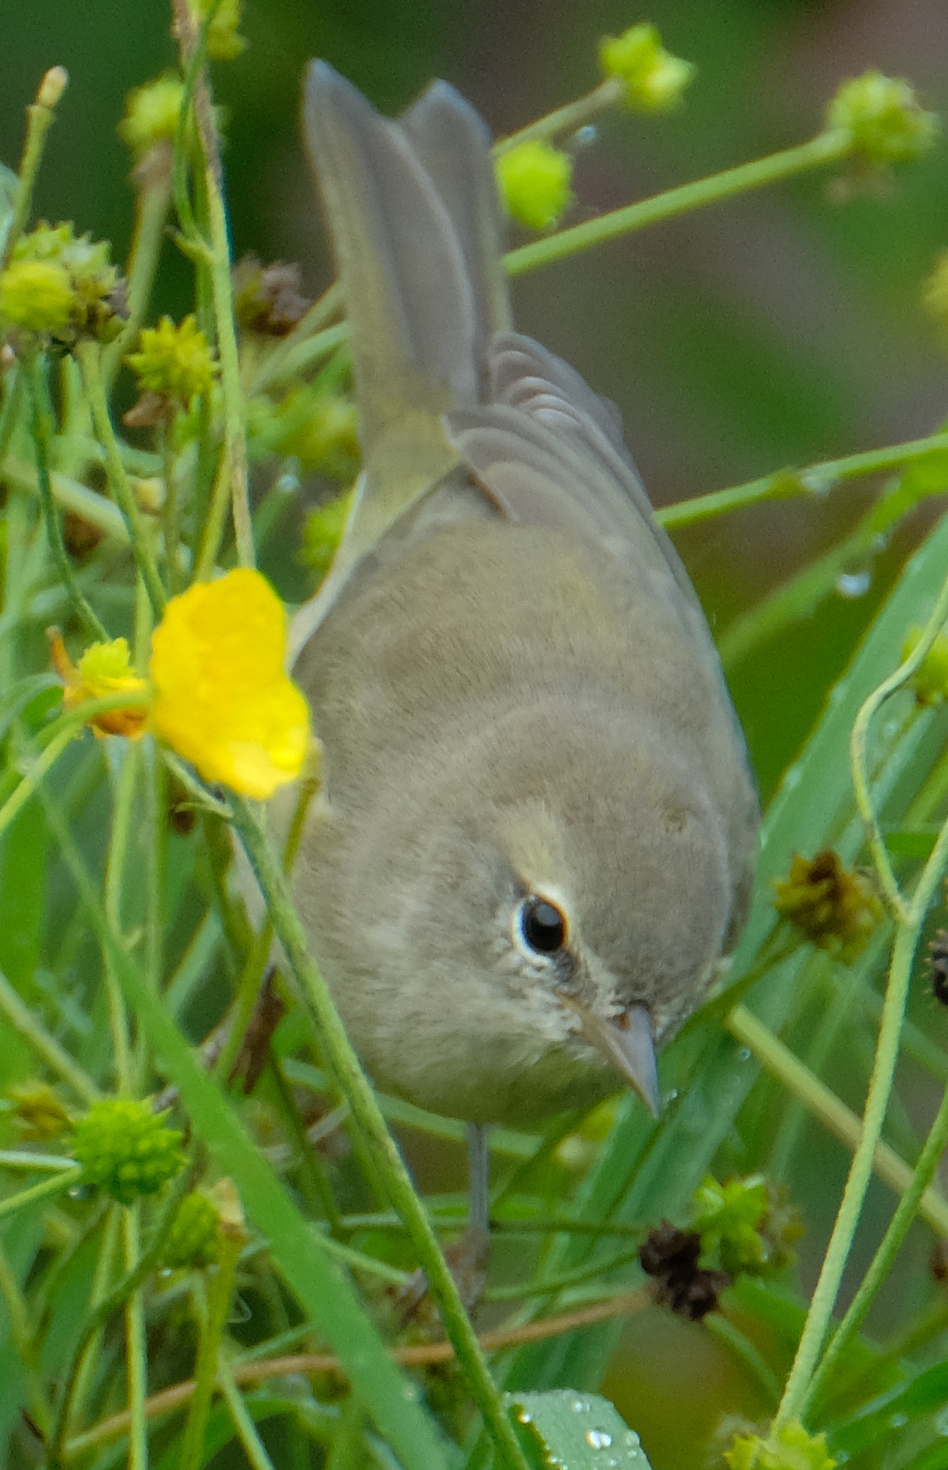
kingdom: Animalia
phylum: Chordata
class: Aves
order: Passeriformes
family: Parulidae
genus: Leiothlypis
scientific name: Leiothlypis celata
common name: Orange-crowned warbler
